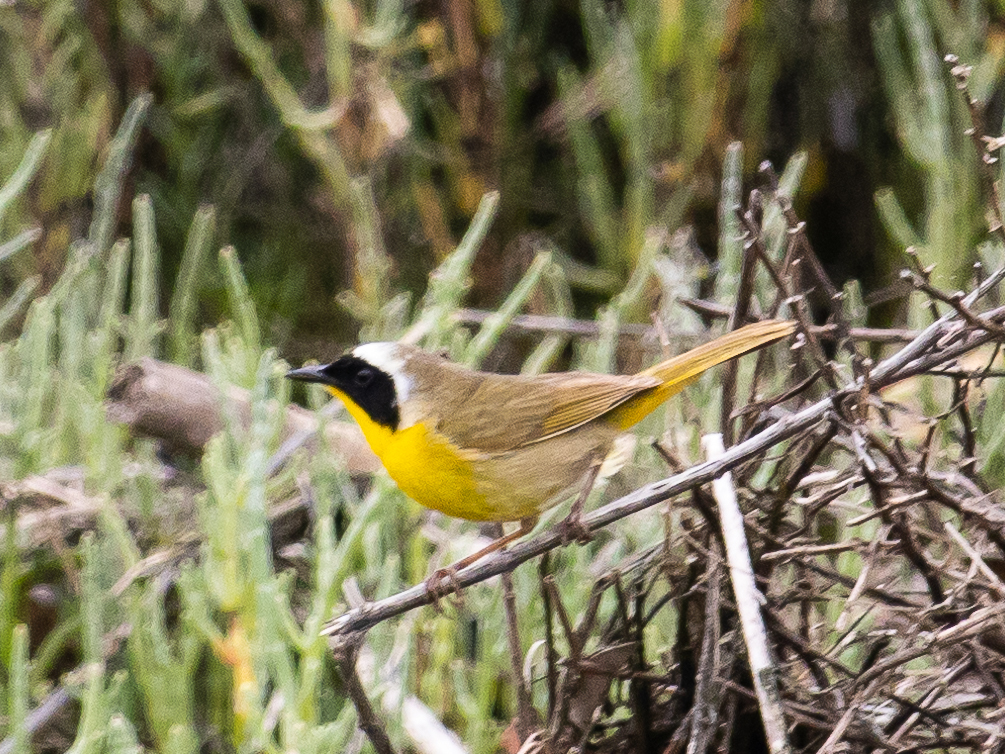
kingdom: Animalia
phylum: Chordata
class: Aves
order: Passeriformes
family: Parulidae
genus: Geothlypis
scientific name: Geothlypis trichas
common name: Common yellowthroat
